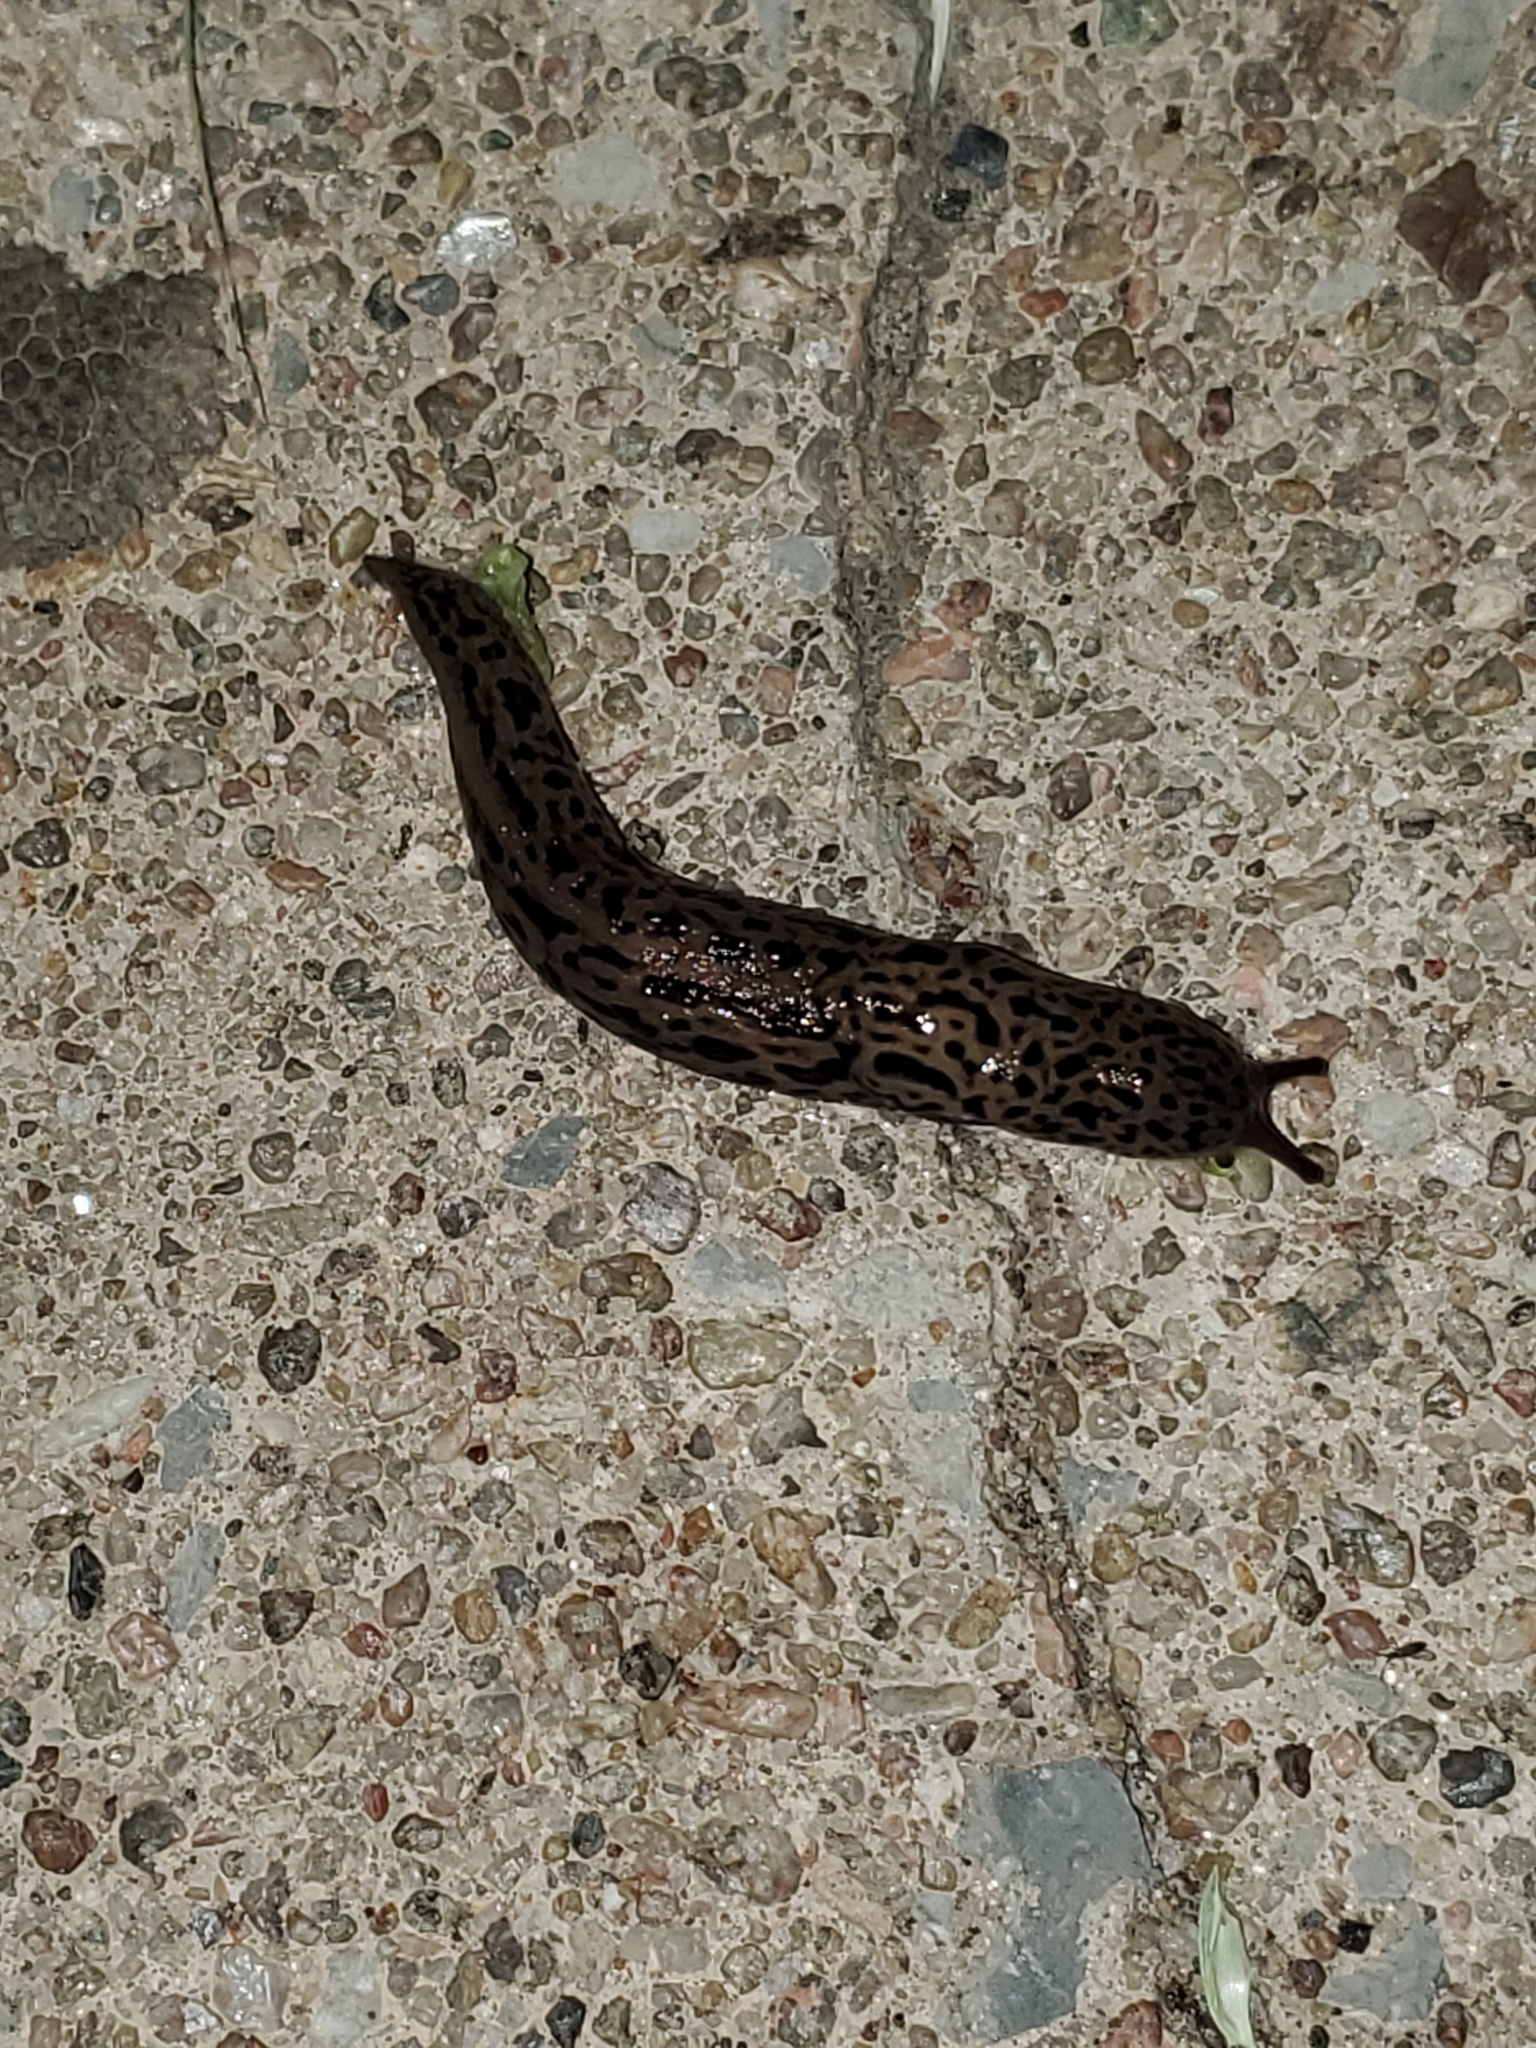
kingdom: Animalia
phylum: Mollusca
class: Gastropoda
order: Stylommatophora
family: Limacidae
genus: Limax
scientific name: Limax maximus
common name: Great grey slug
